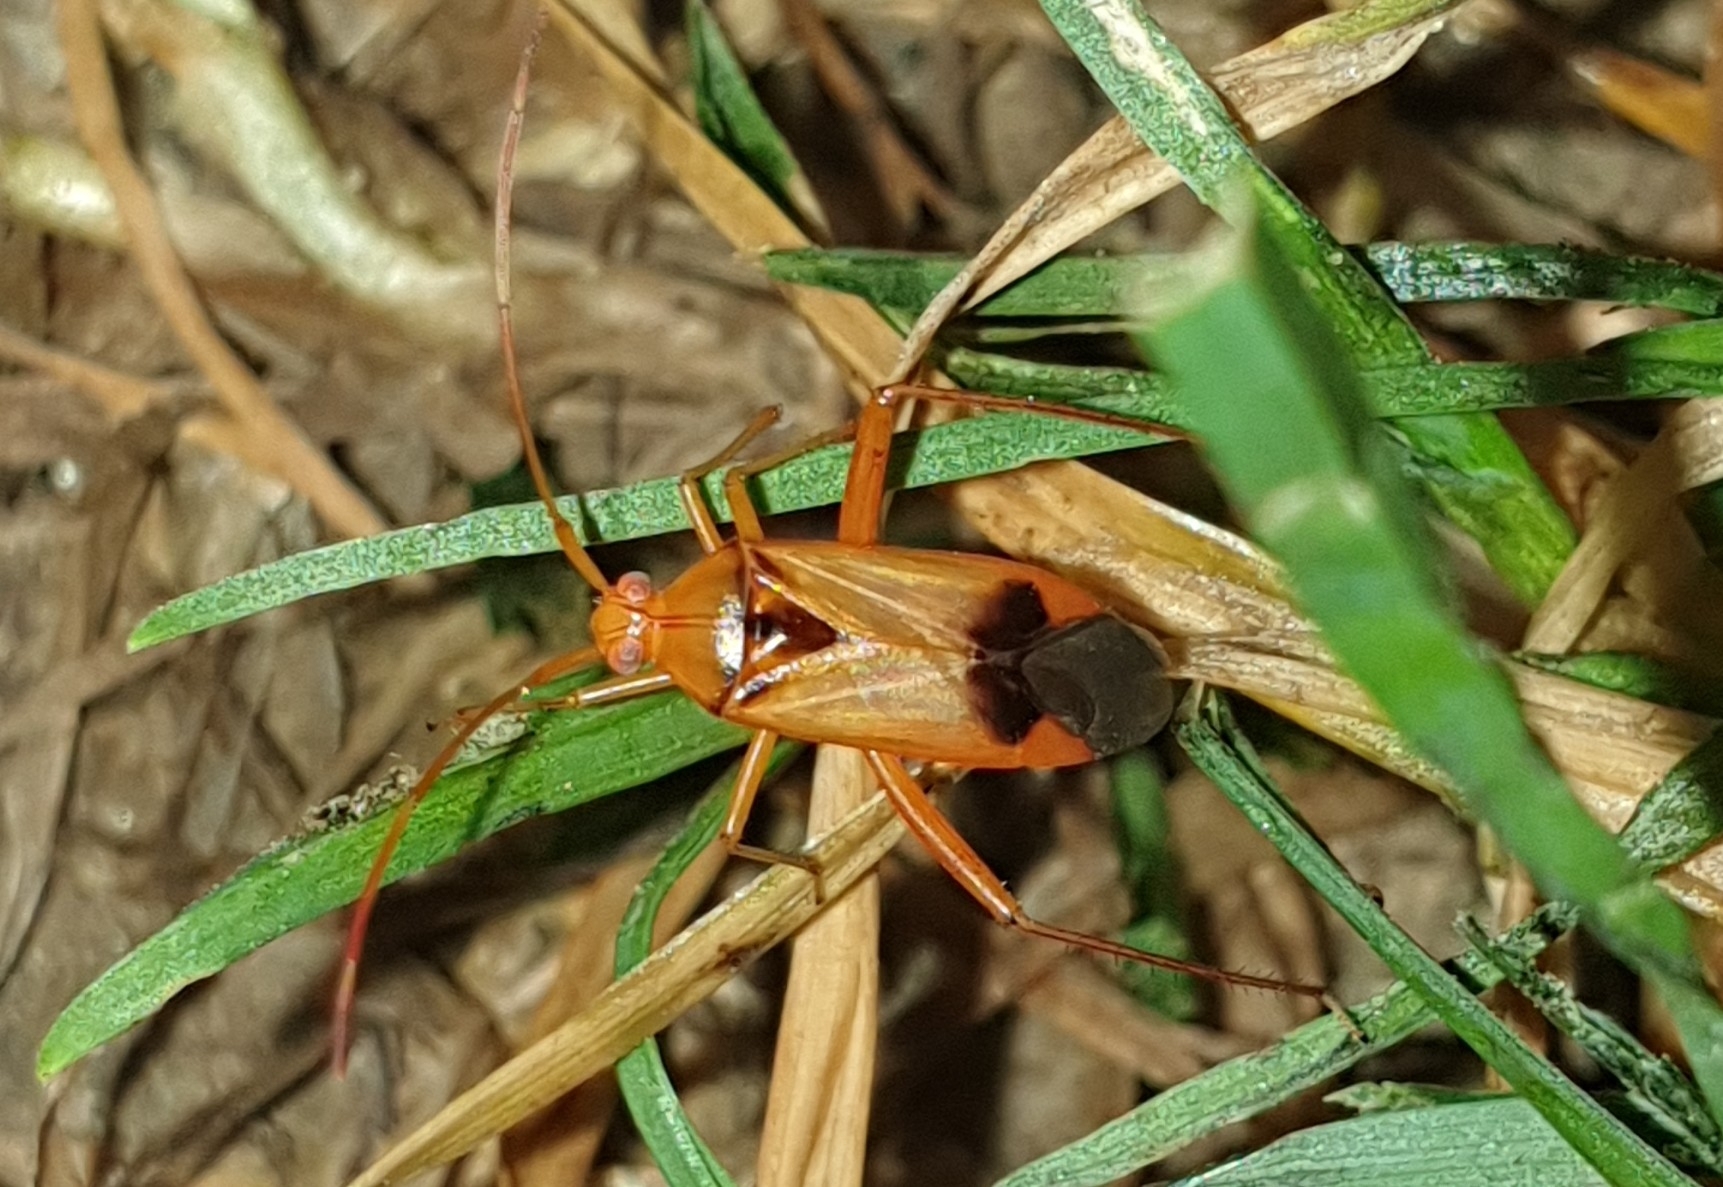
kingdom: Animalia
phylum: Arthropoda
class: Insecta
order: Hemiptera
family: Miridae
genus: Megacoelum
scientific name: Megacoelum infusum
